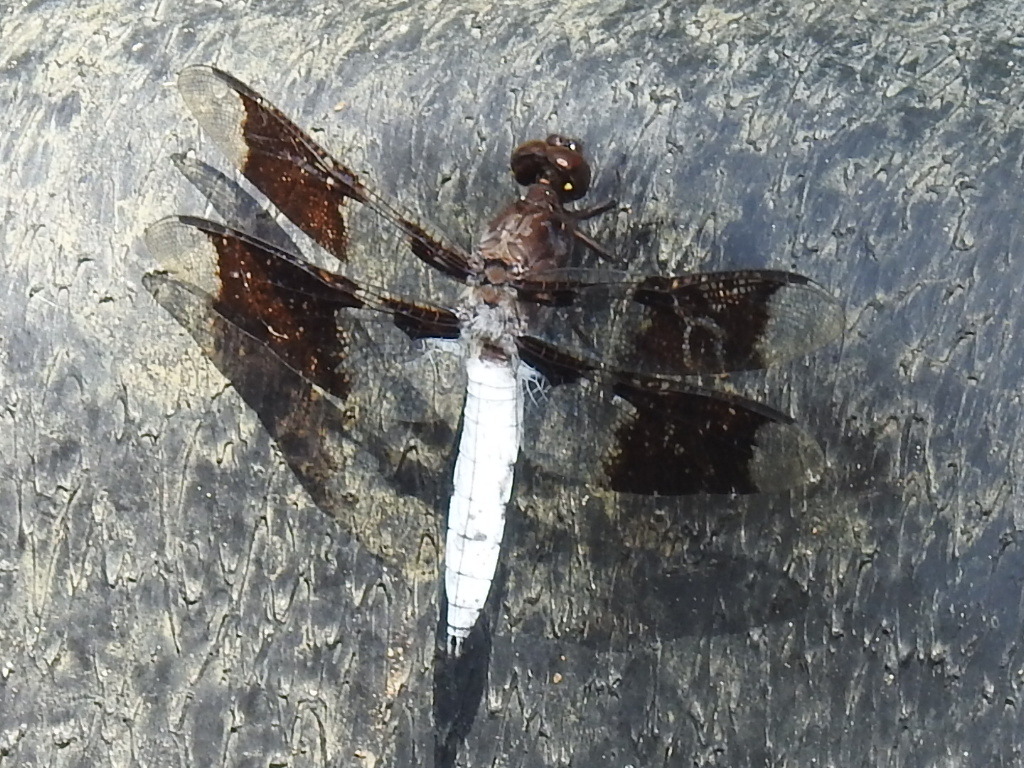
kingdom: Animalia
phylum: Arthropoda
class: Insecta
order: Odonata
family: Libellulidae
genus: Plathemis
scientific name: Plathemis lydia
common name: Common whitetail
